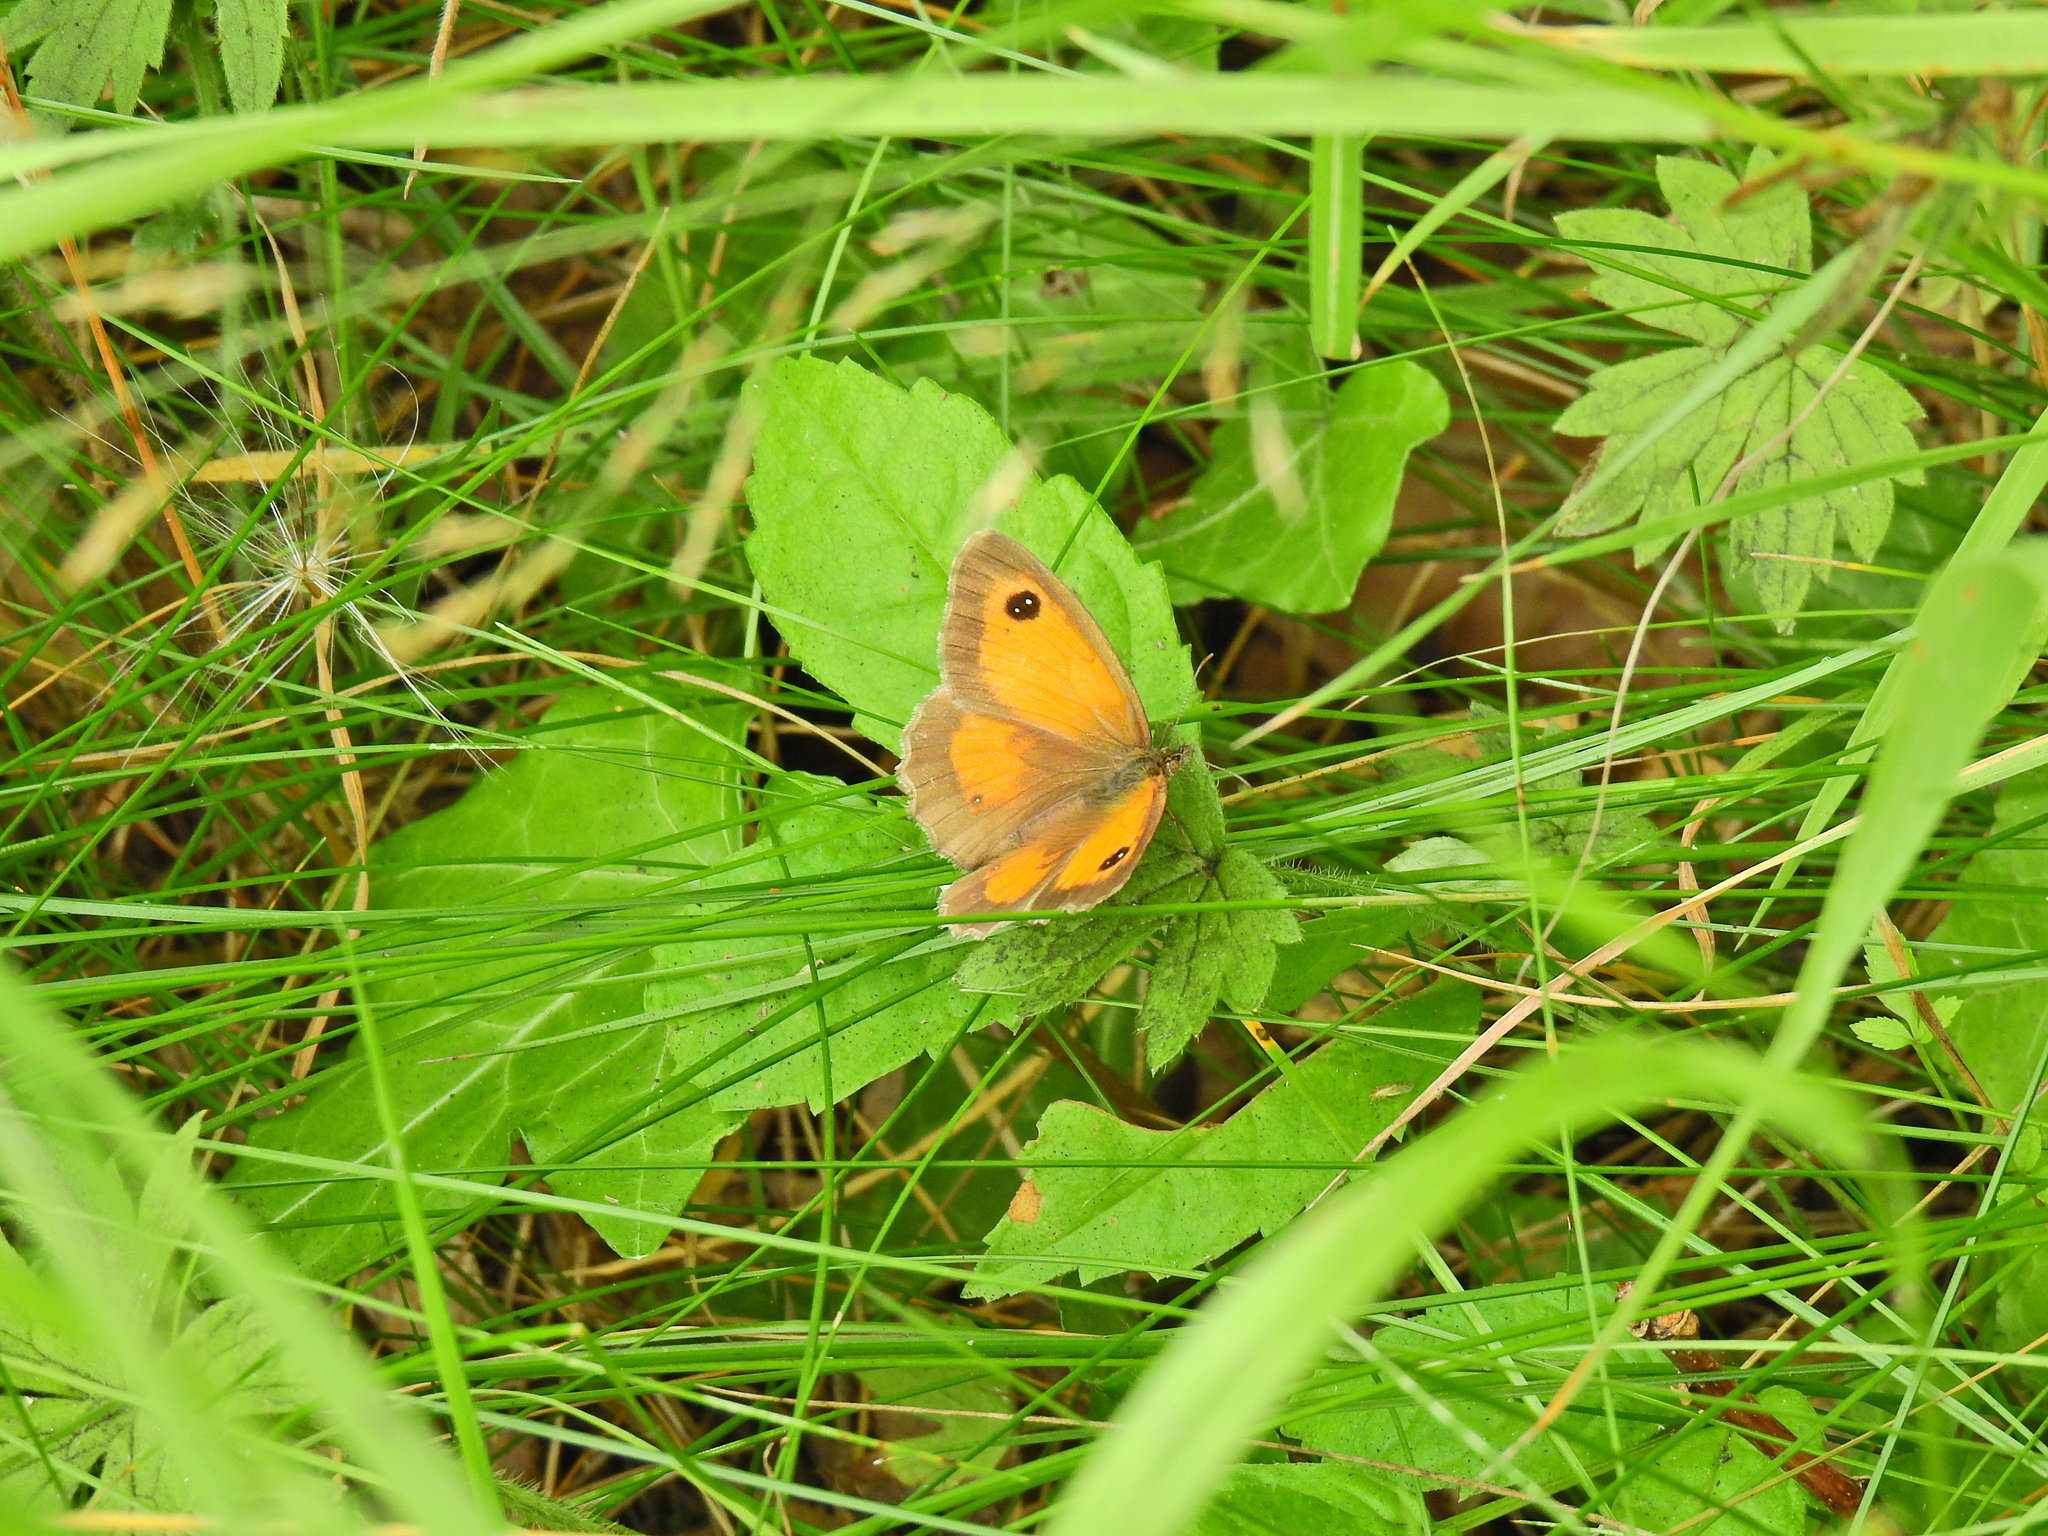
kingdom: Animalia
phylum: Arthropoda
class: Insecta
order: Lepidoptera
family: Nymphalidae
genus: Pyronia
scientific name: Pyronia tithonus
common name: Gatekeeper
